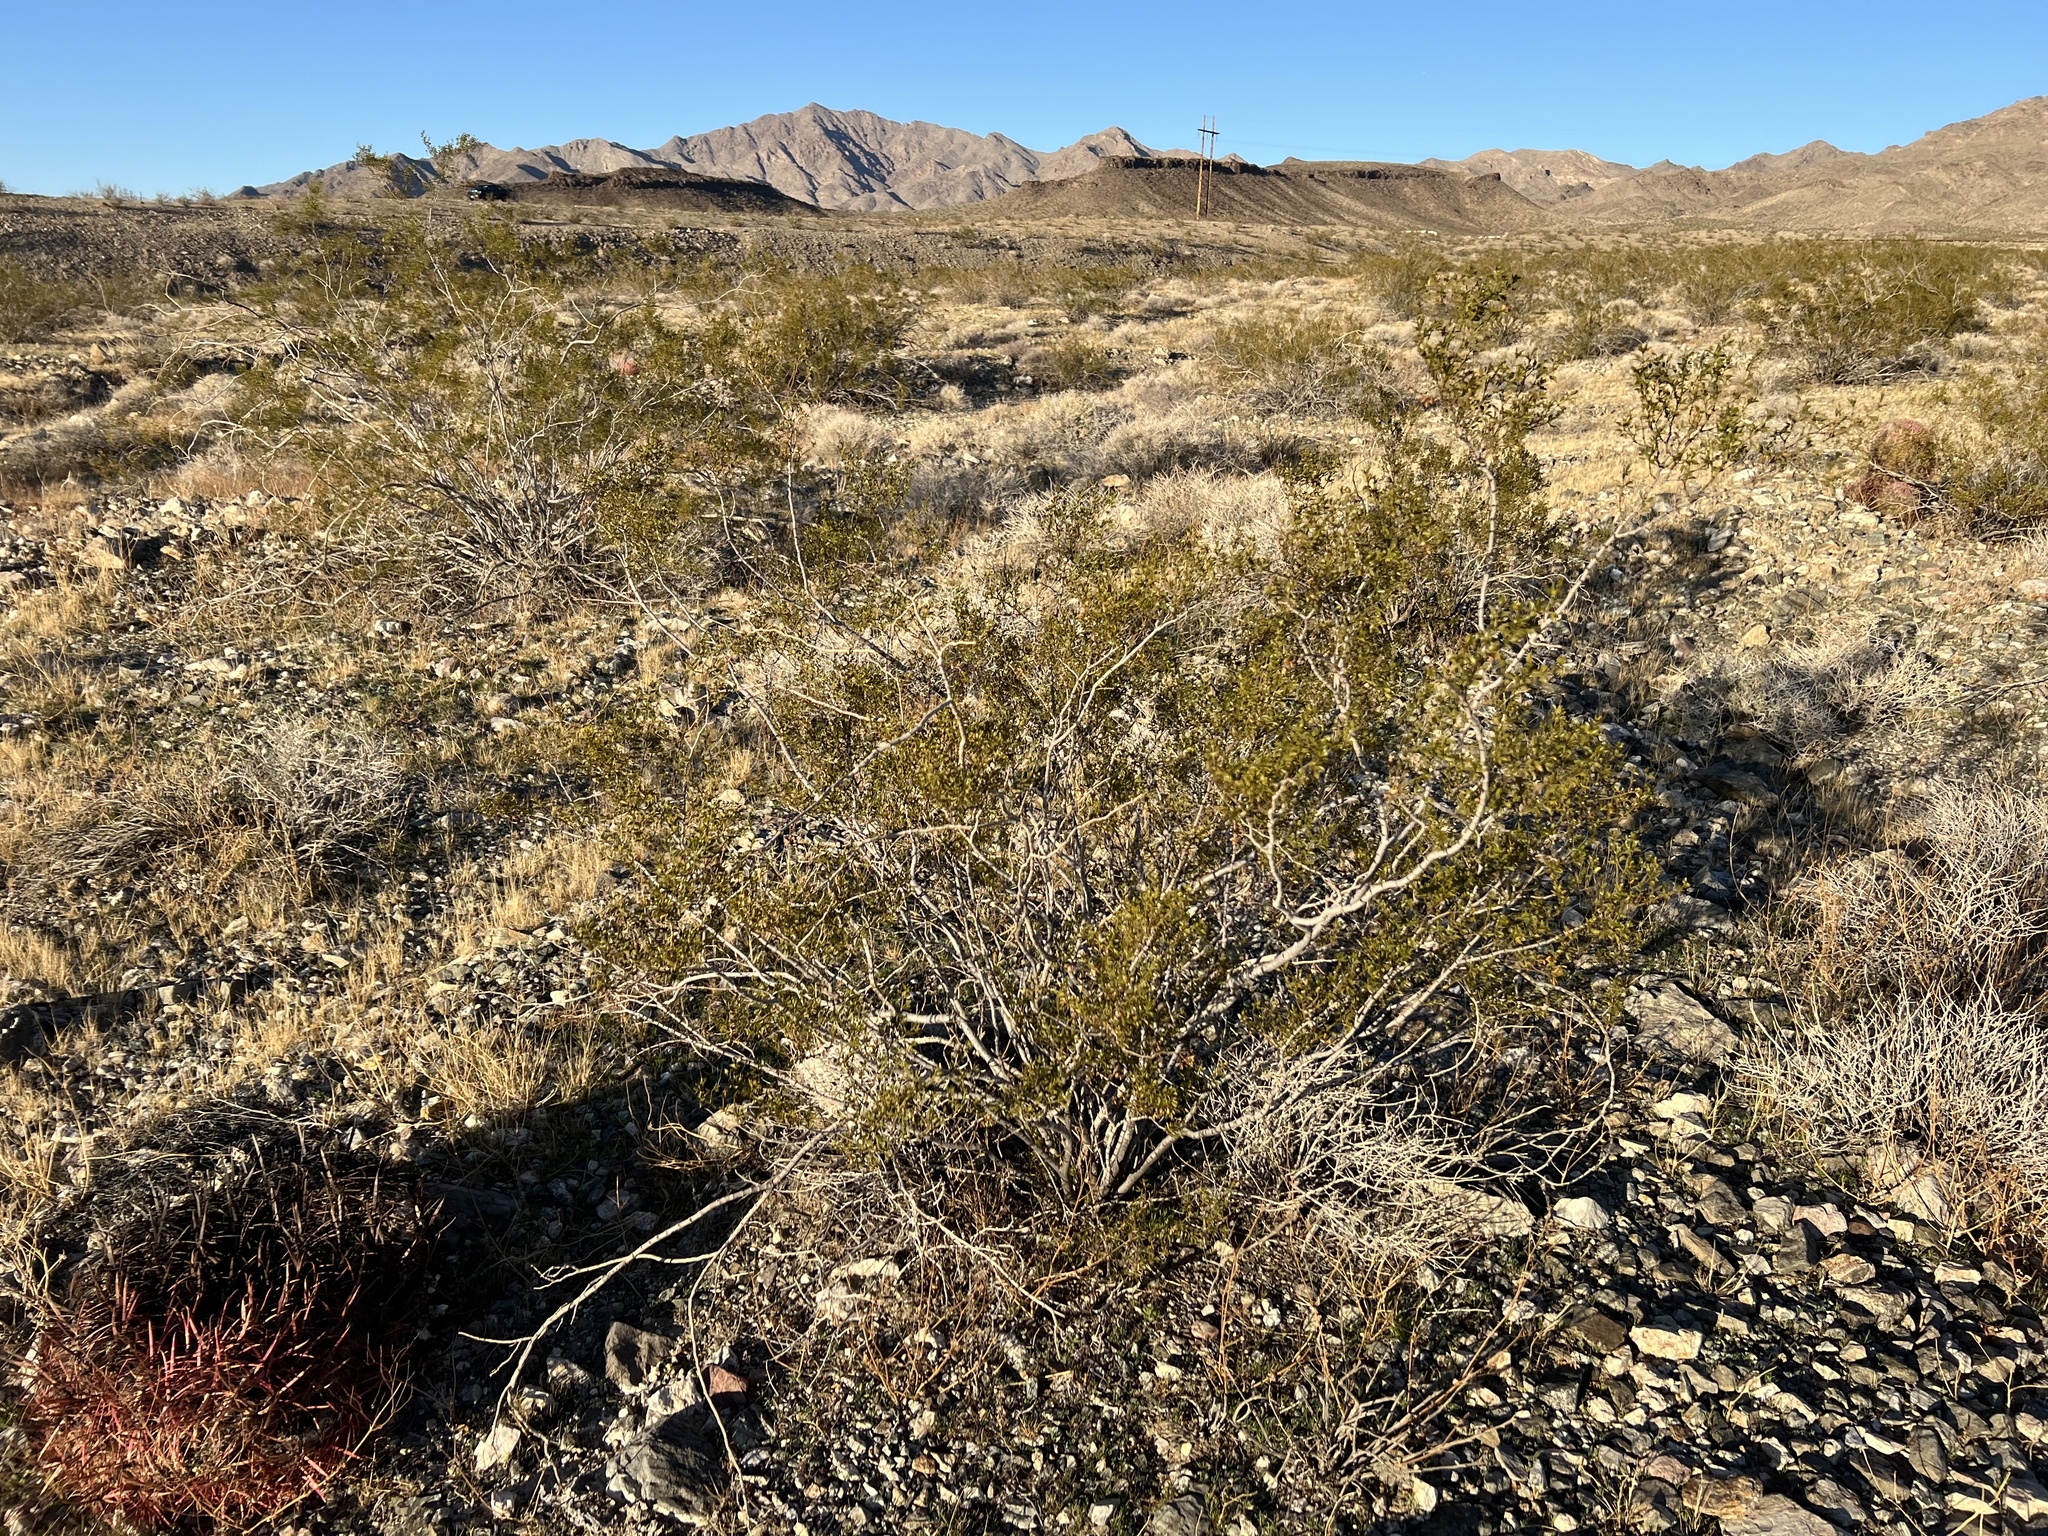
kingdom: Plantae
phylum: Tracheophyta
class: Magnoliopsida
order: Zygophyllales
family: Zygophyllaceae
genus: Larrea
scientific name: Larrea tridentata
